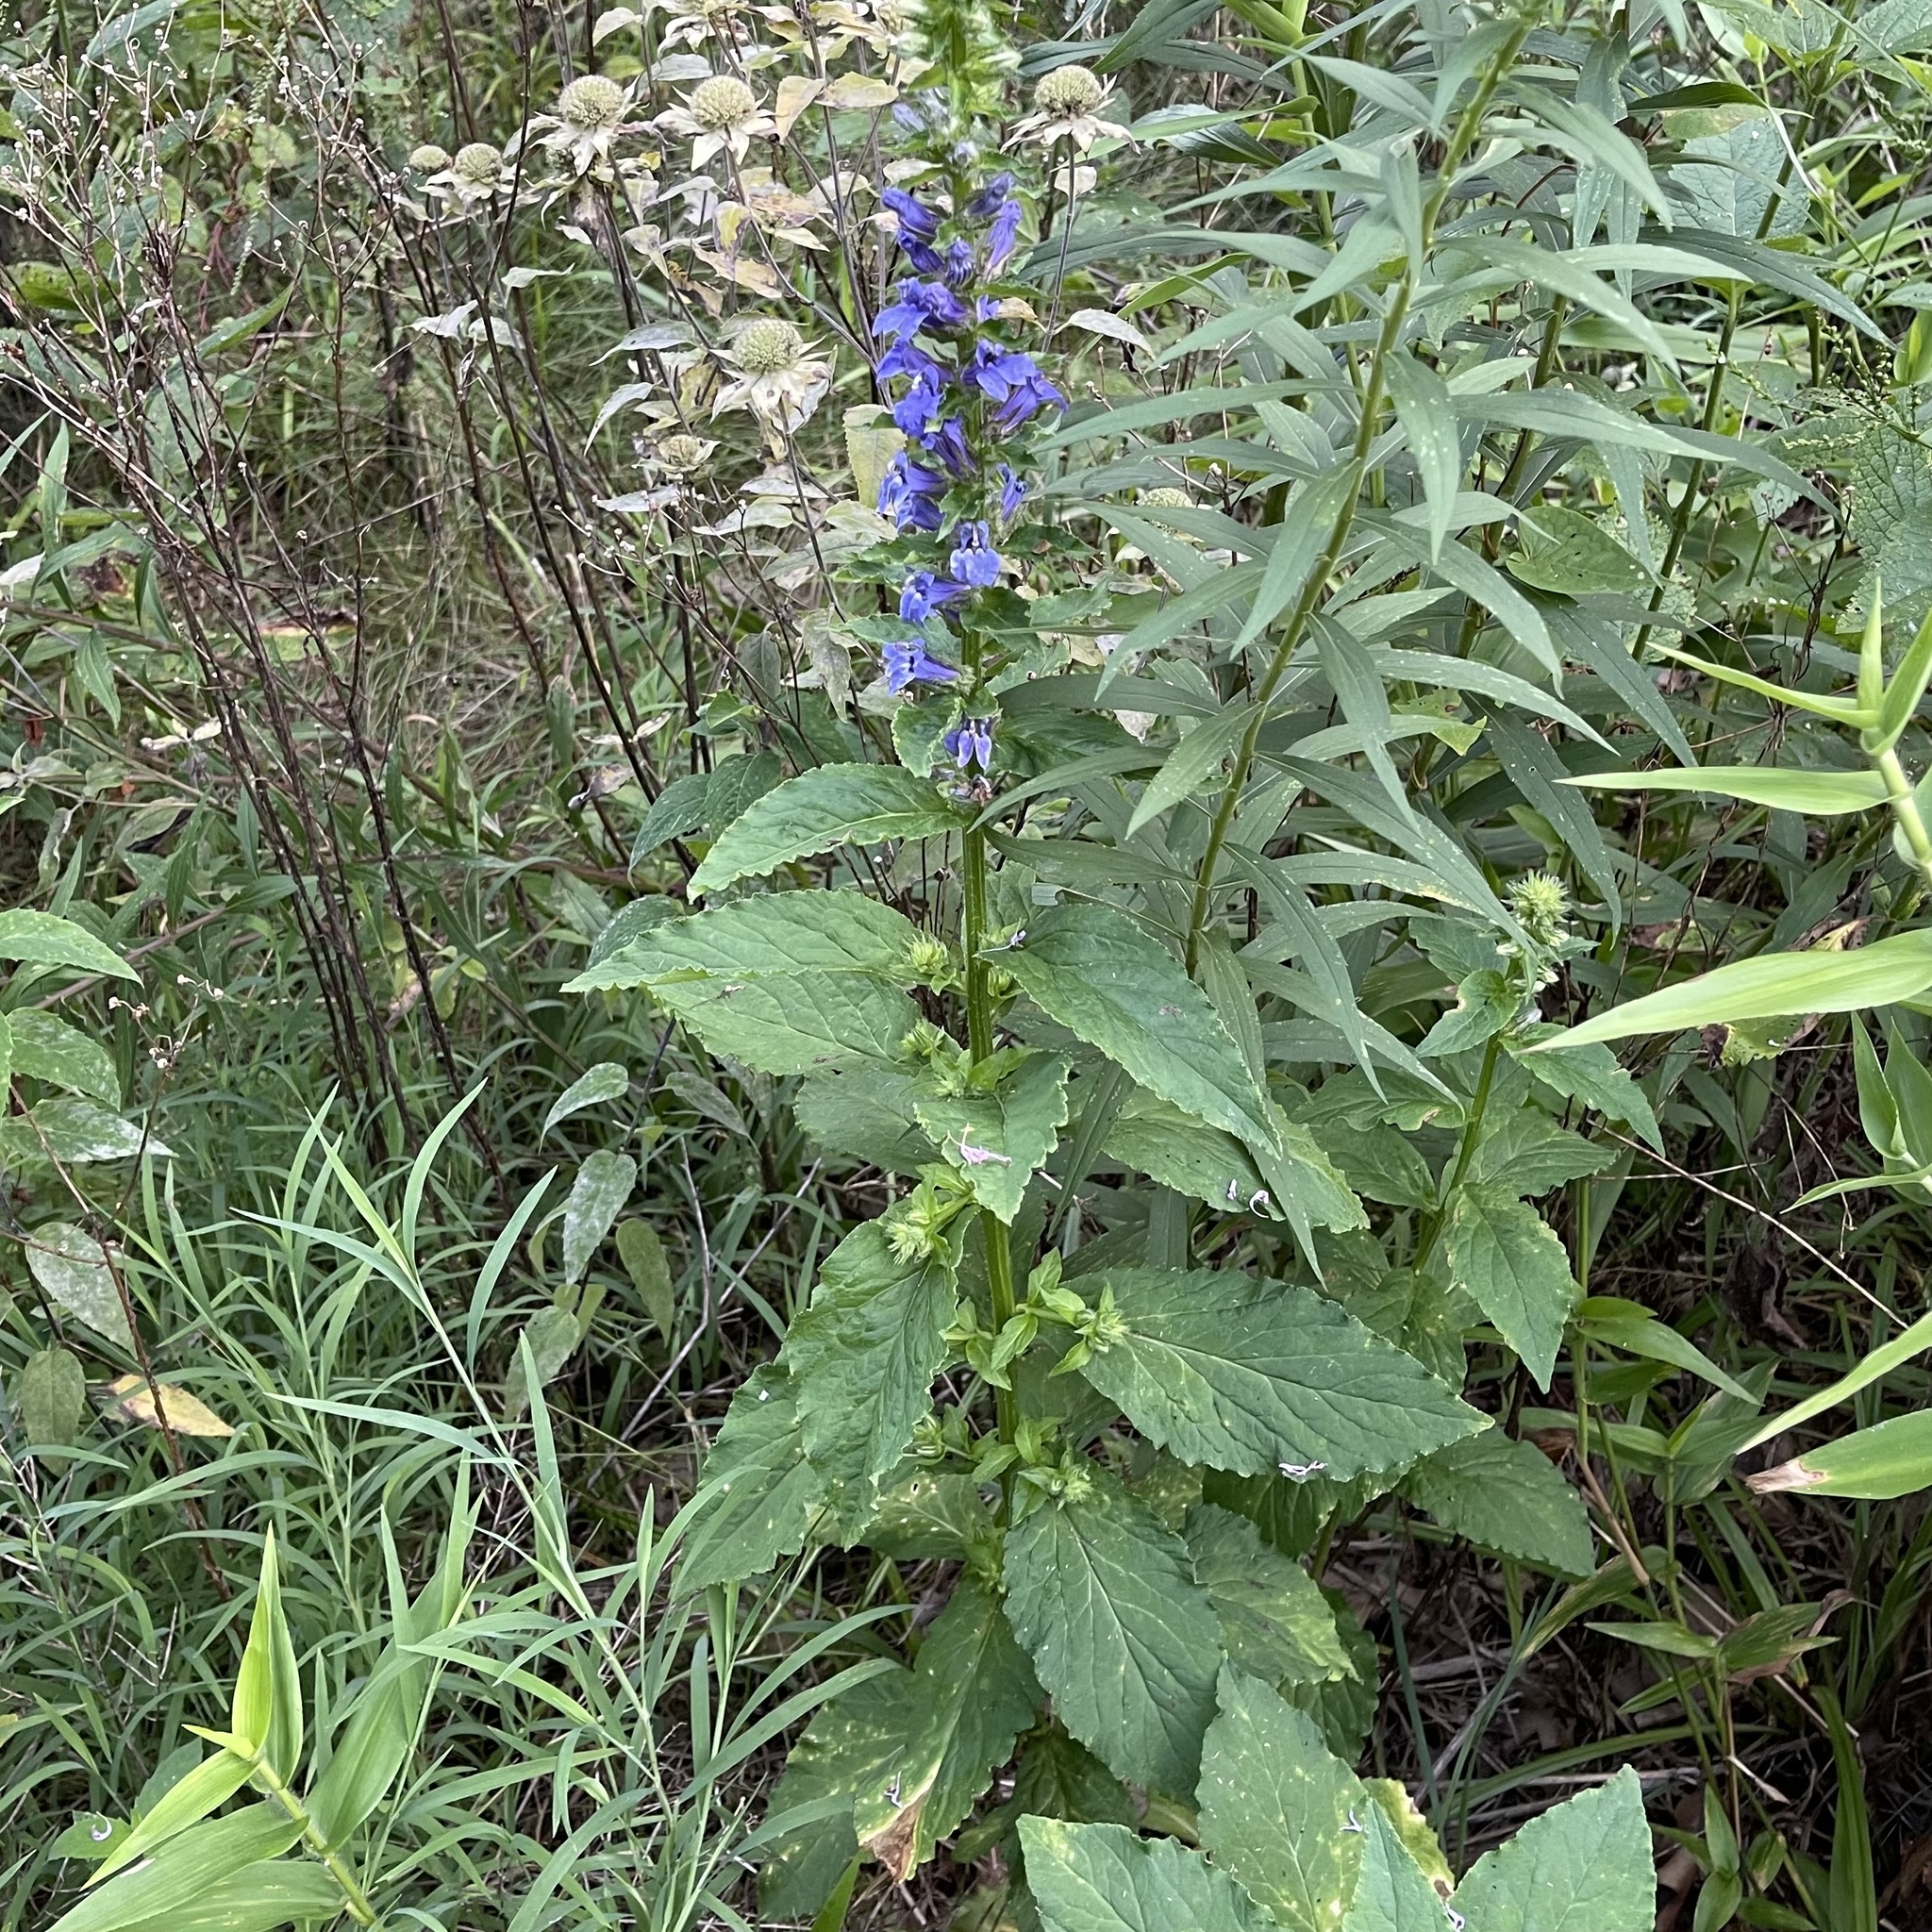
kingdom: Plantae
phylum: Tracheophyta
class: Magnoliopsida
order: Asterales
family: Campanulaceae
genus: Lobelia
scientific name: Lobelia siphilitica
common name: Great lobelia
